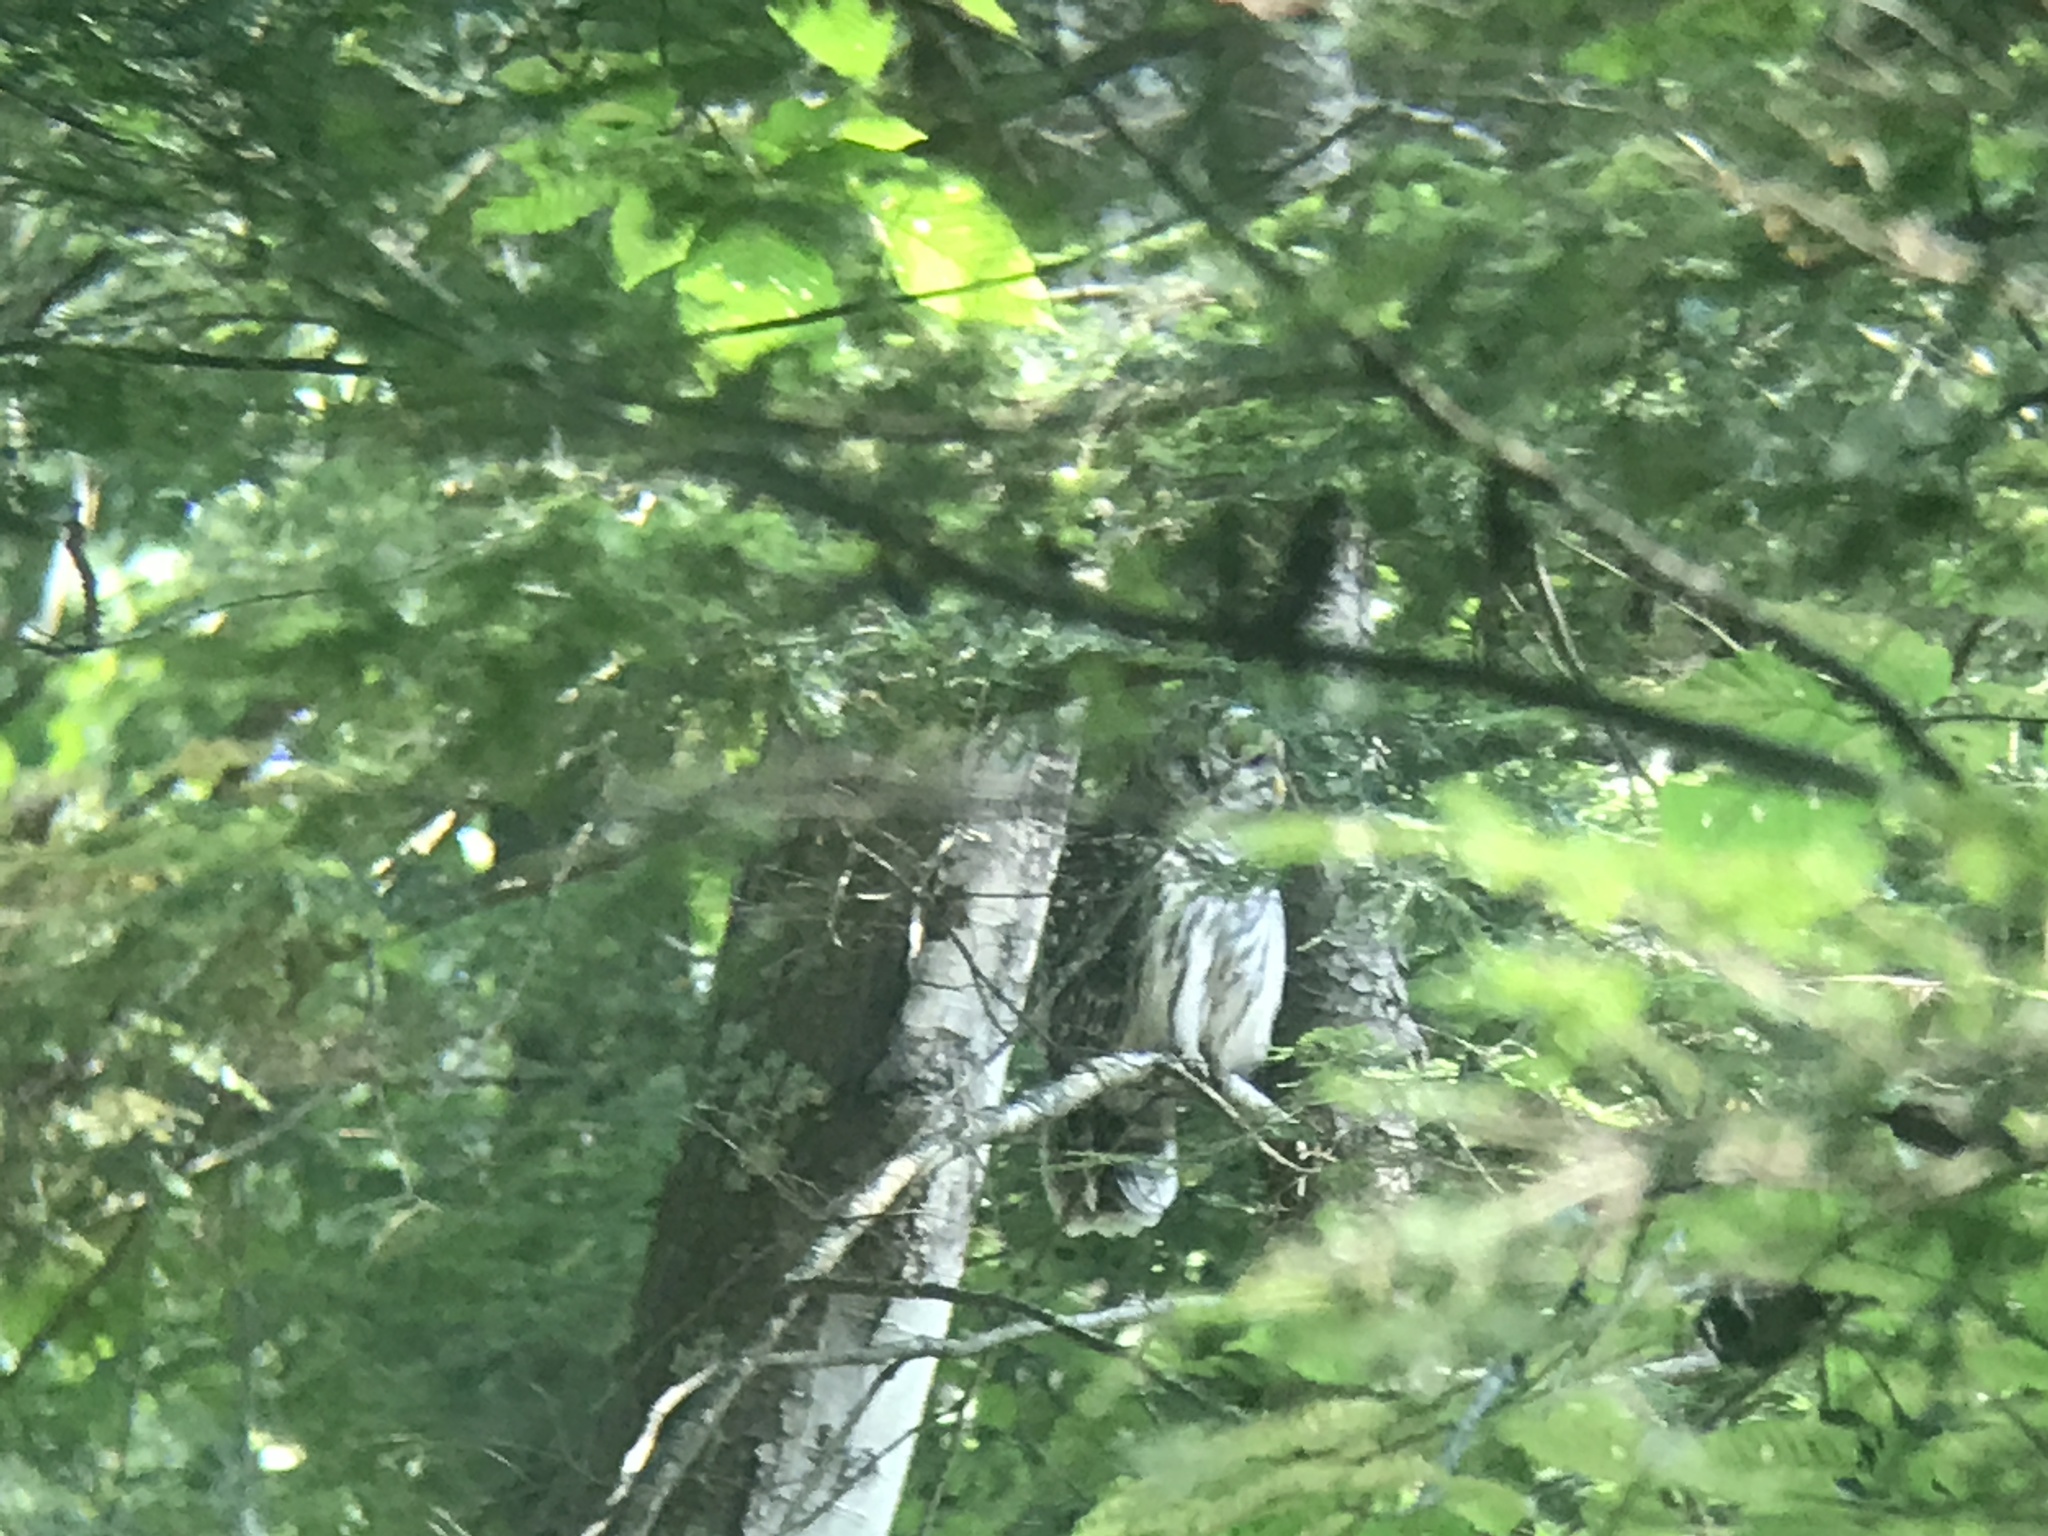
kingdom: Animalia
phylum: Chordata
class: Aves
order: Strigiformes
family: Strigidae
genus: Strix
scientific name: Strix varia
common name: Barred owl
